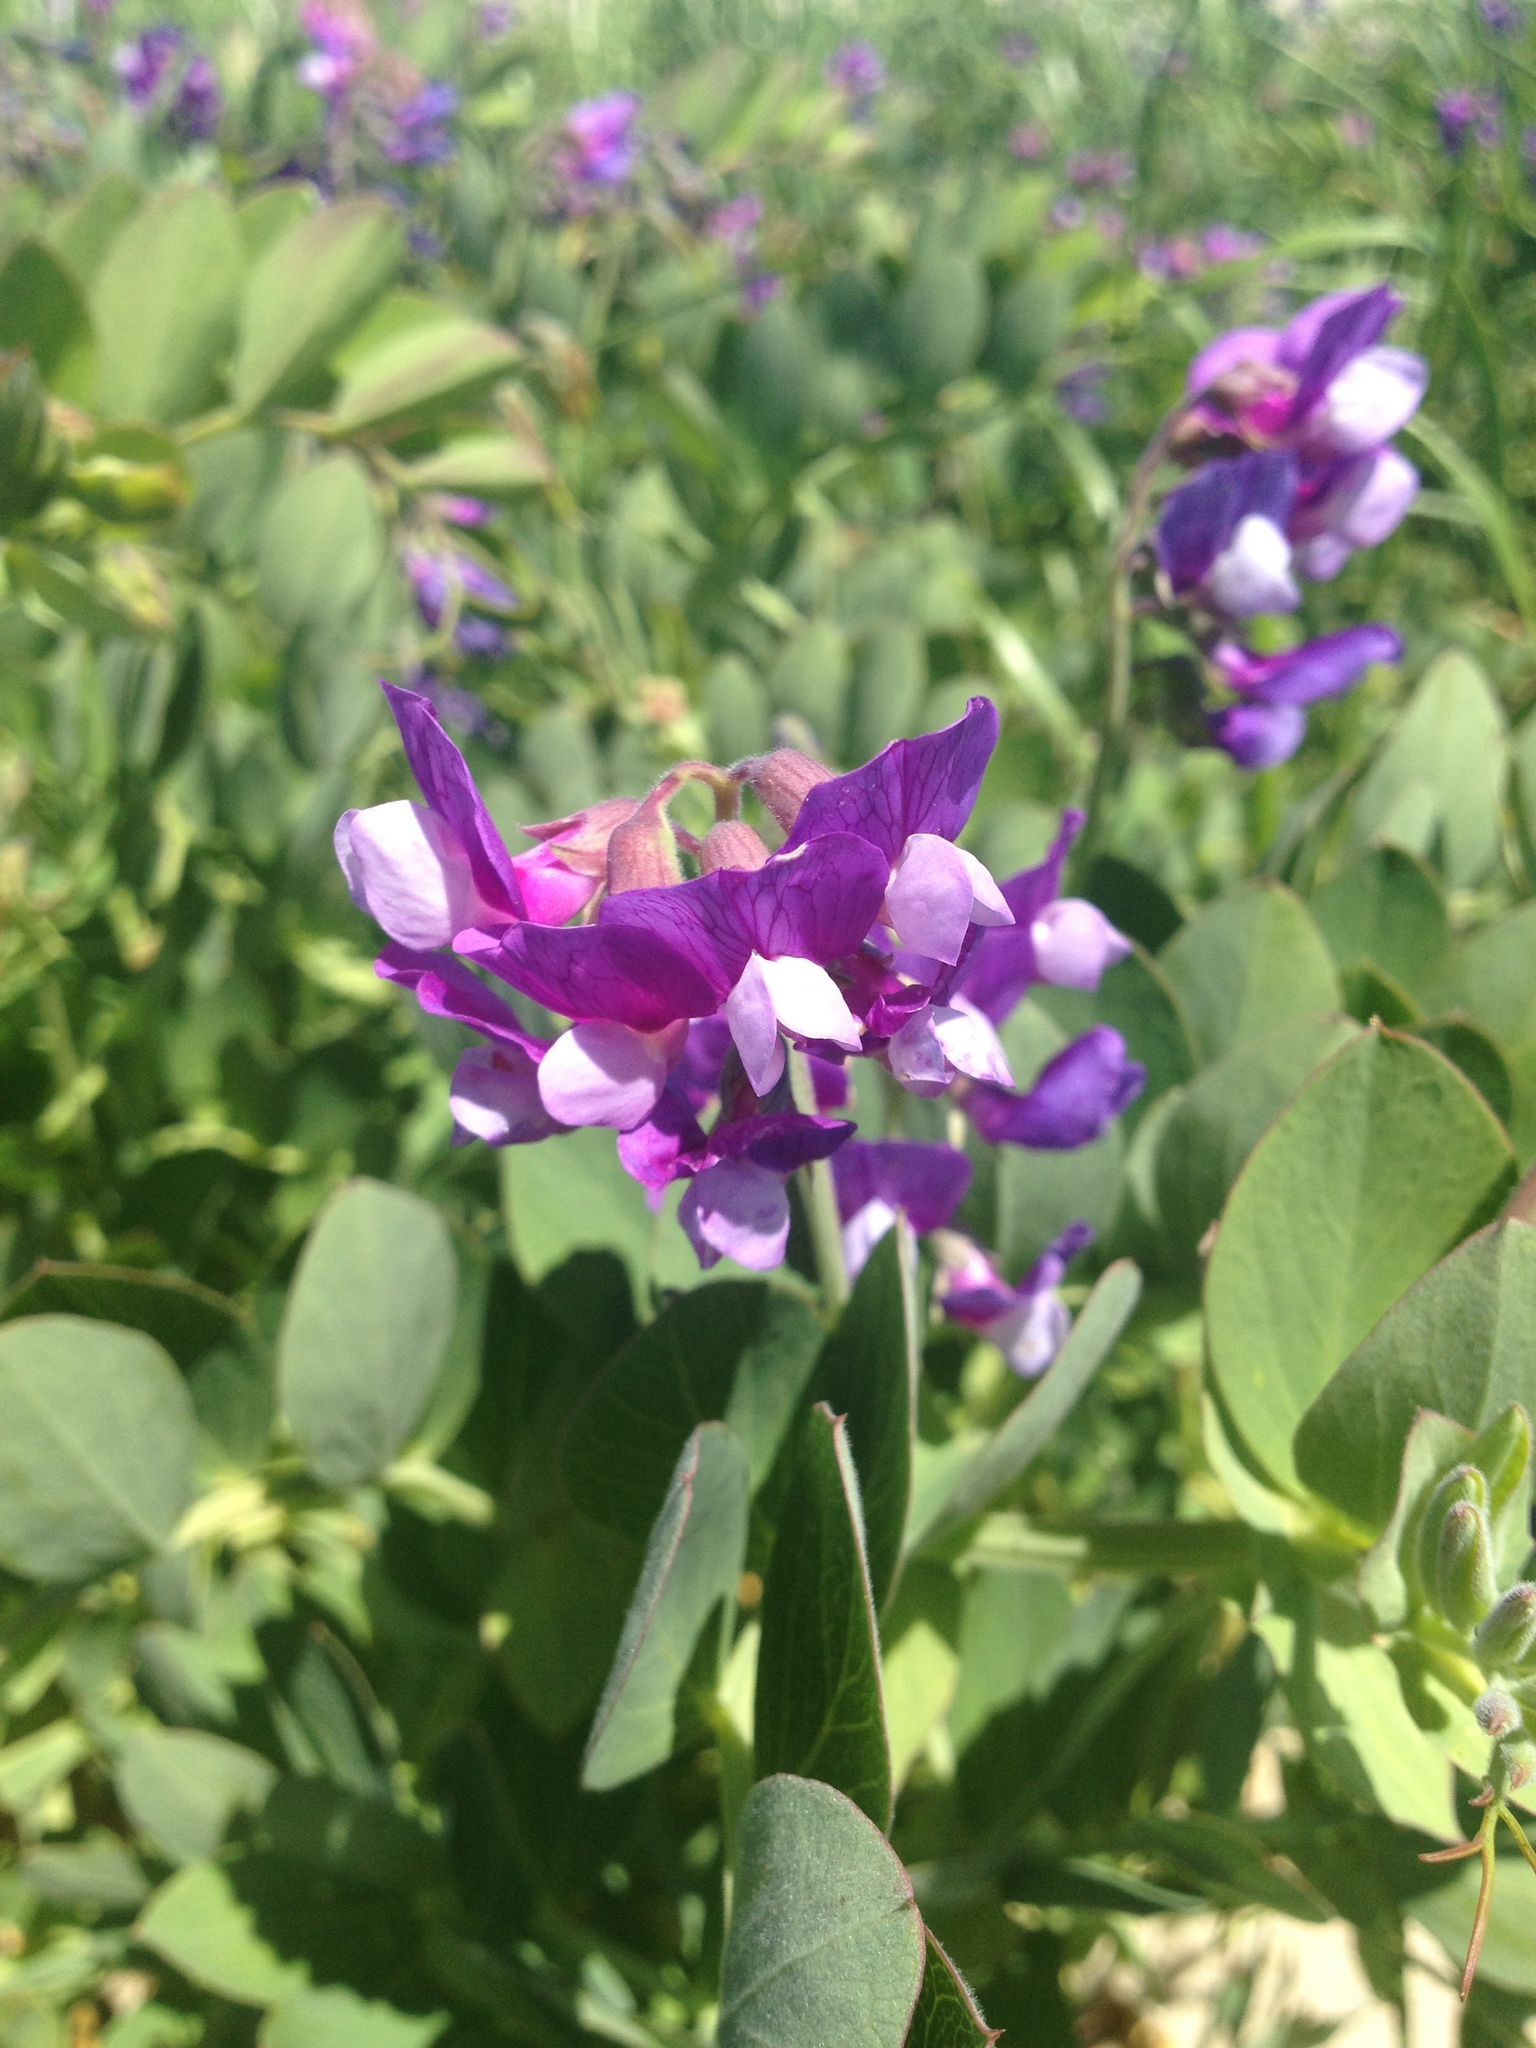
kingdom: Plantae
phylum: Tracheophyta
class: Magnoliopsida
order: Fabales
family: Fabaceae
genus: Lathyrus
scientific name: Lathyrus japonicus
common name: Sea pea
